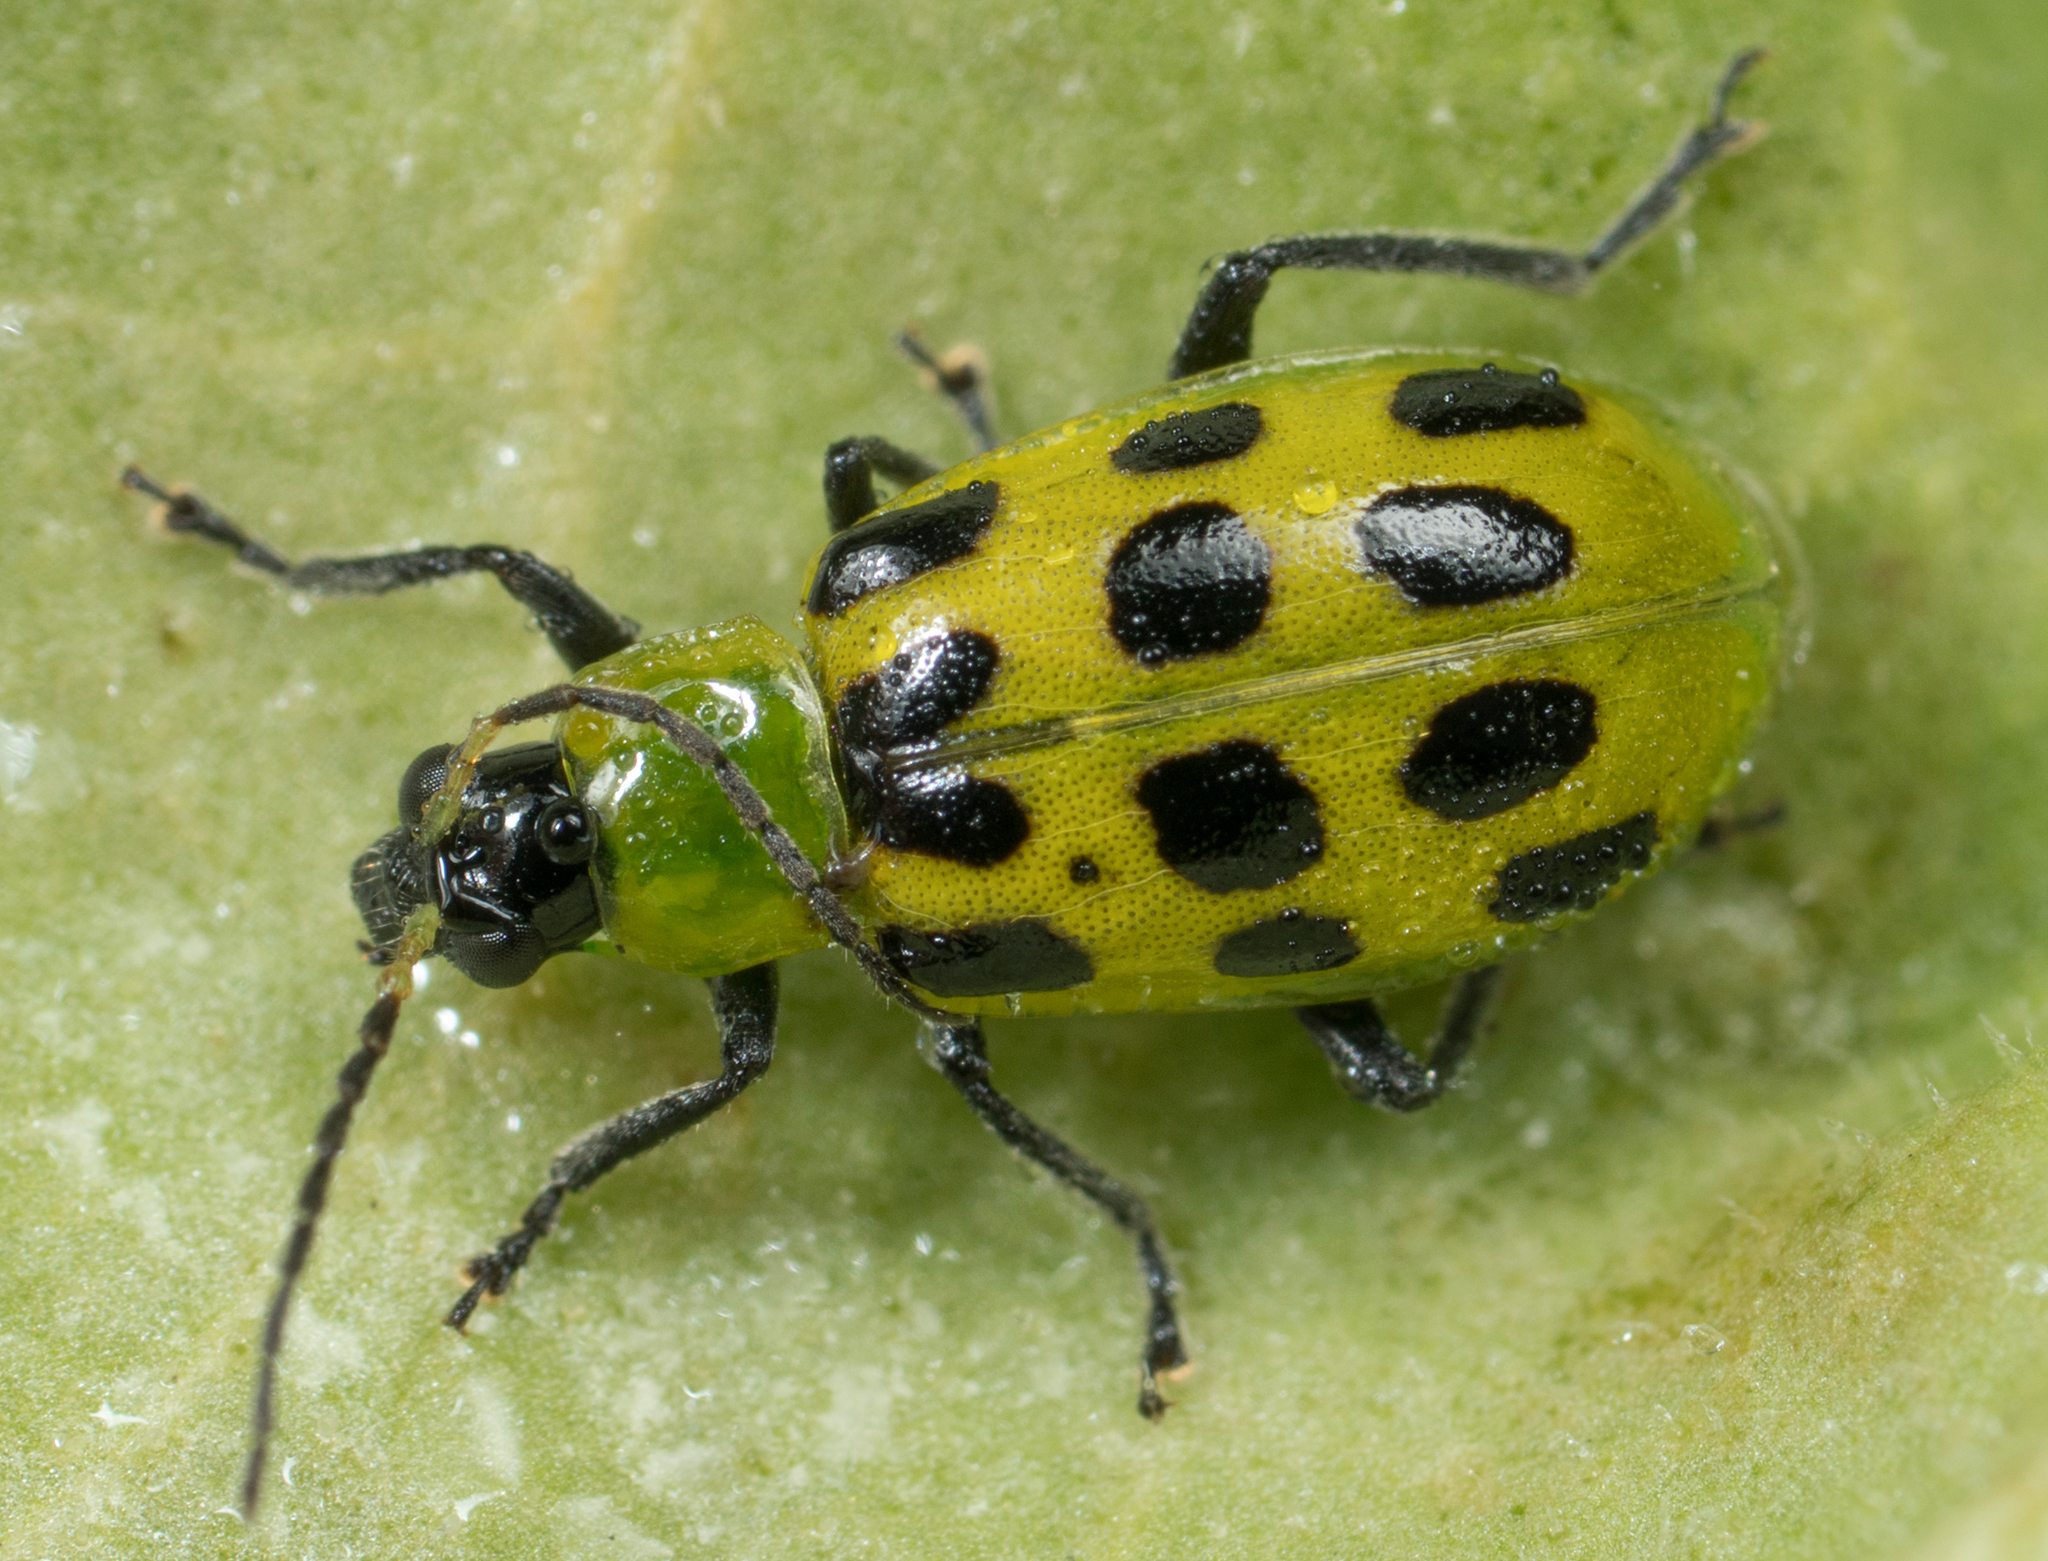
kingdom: Animalia
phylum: Arthropoda
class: Insecta
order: Coleoptera
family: Chrysomelidae
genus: Diabrotica
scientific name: Diabrotica undecimpunctata
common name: Spotted cucumber beetle
